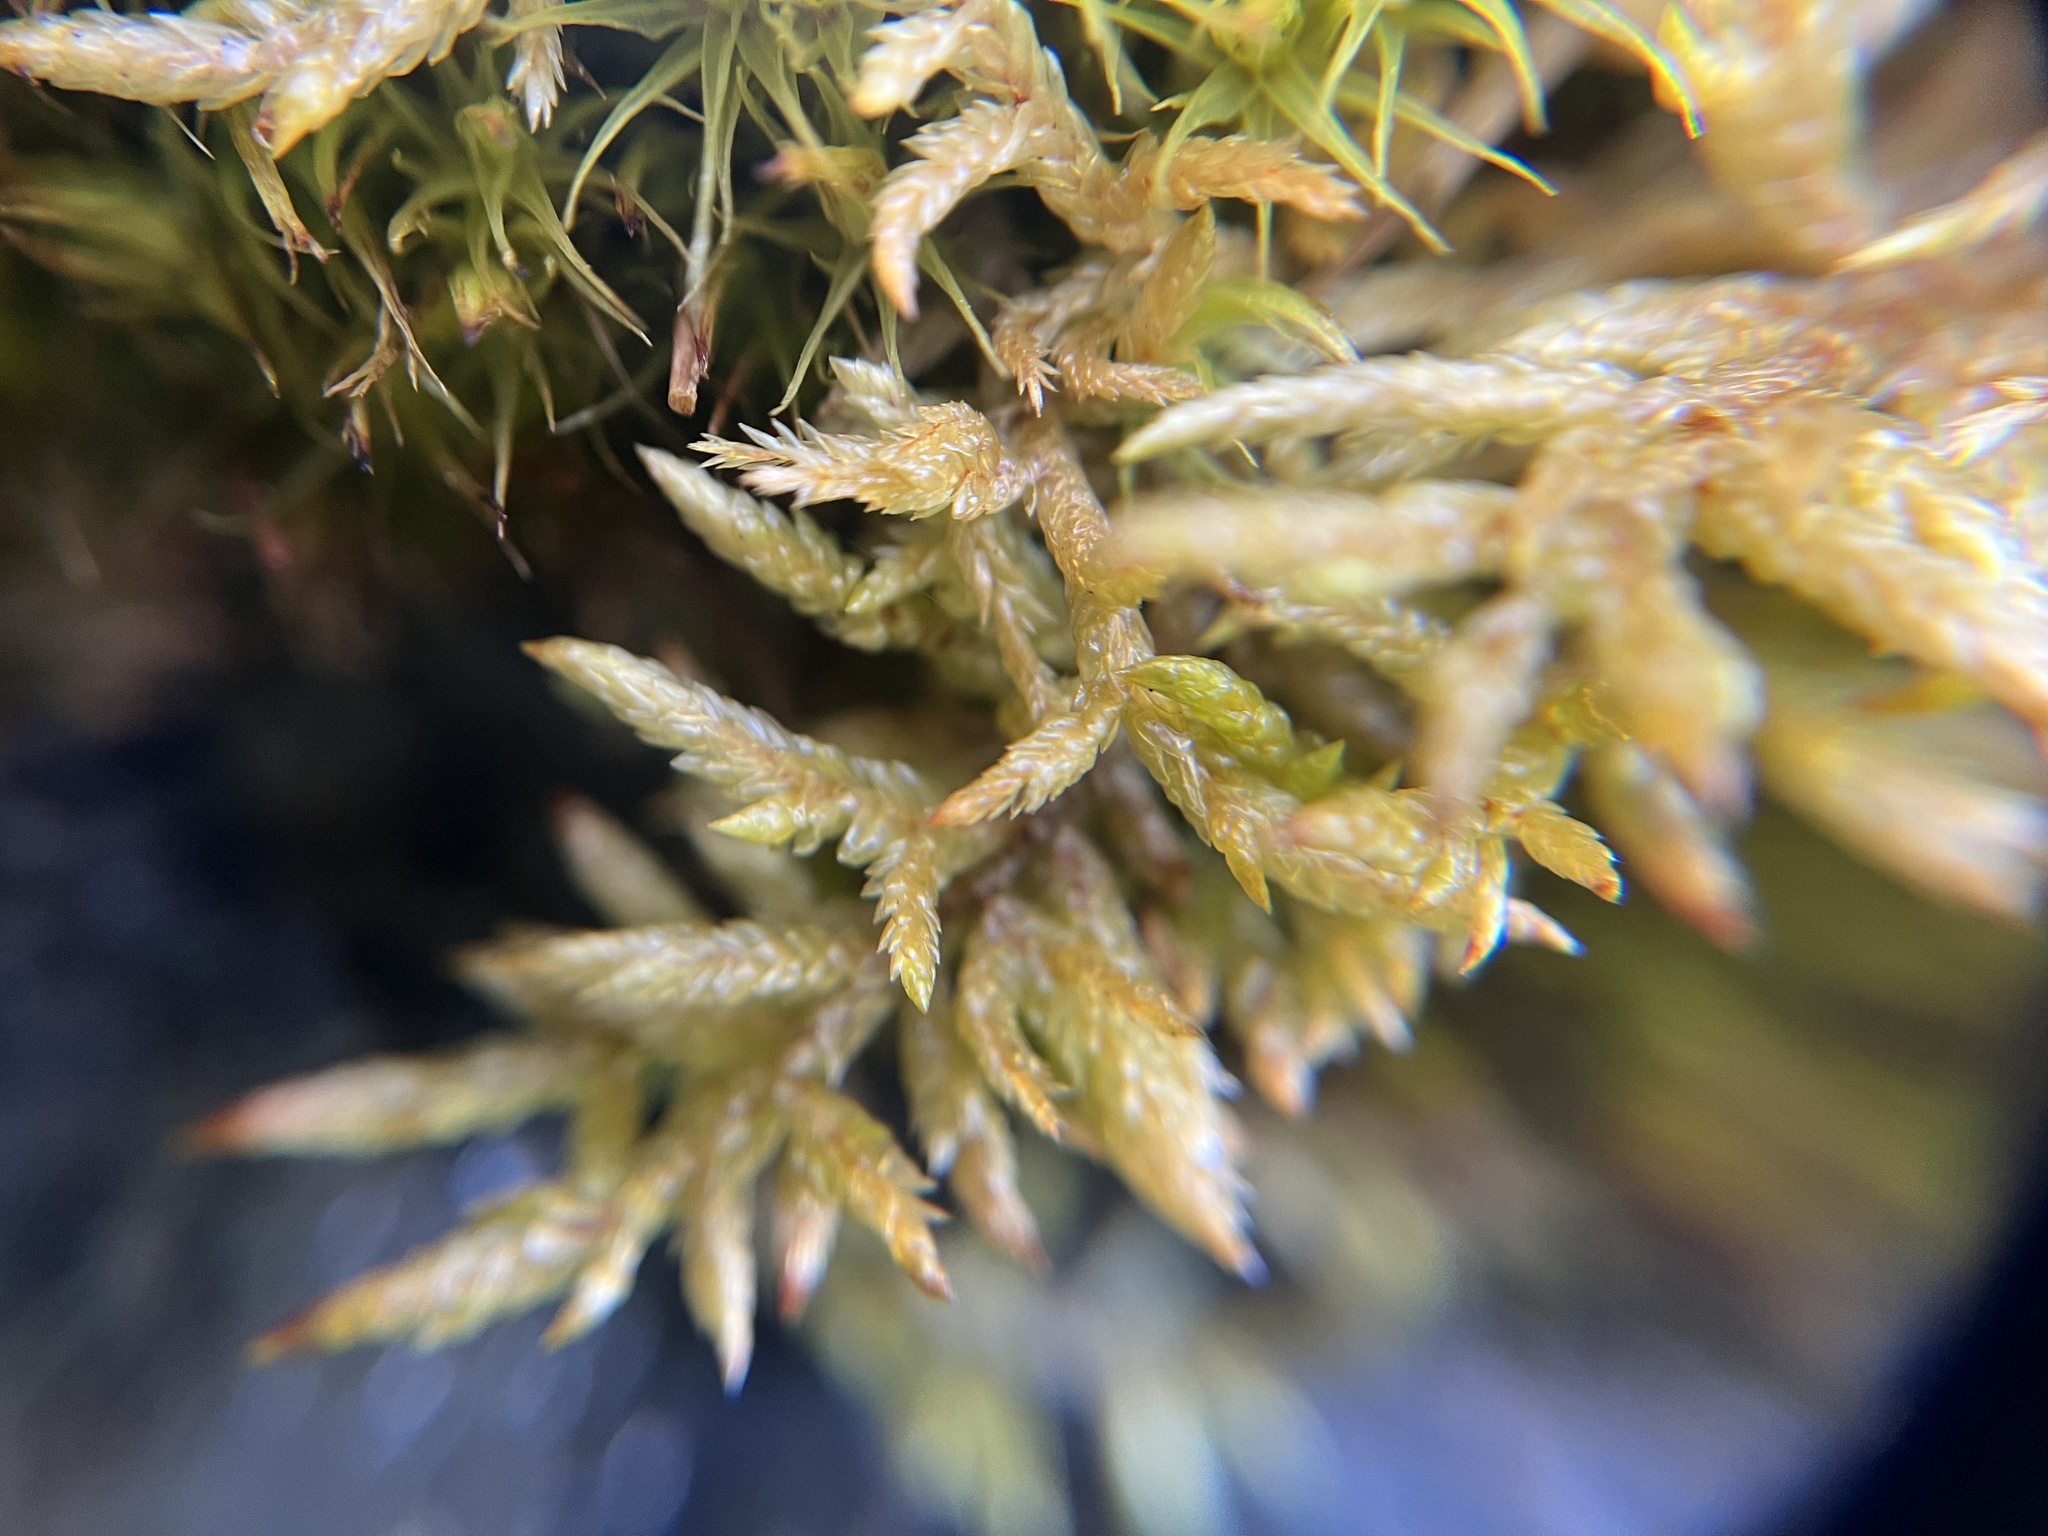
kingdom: Plantae
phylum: Bryophyta
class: Bryopsida
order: Hypnales
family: Hylocomiaceae
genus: Pleurozium
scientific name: Pleurozium schreberi
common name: Red-stemmed feather moss
